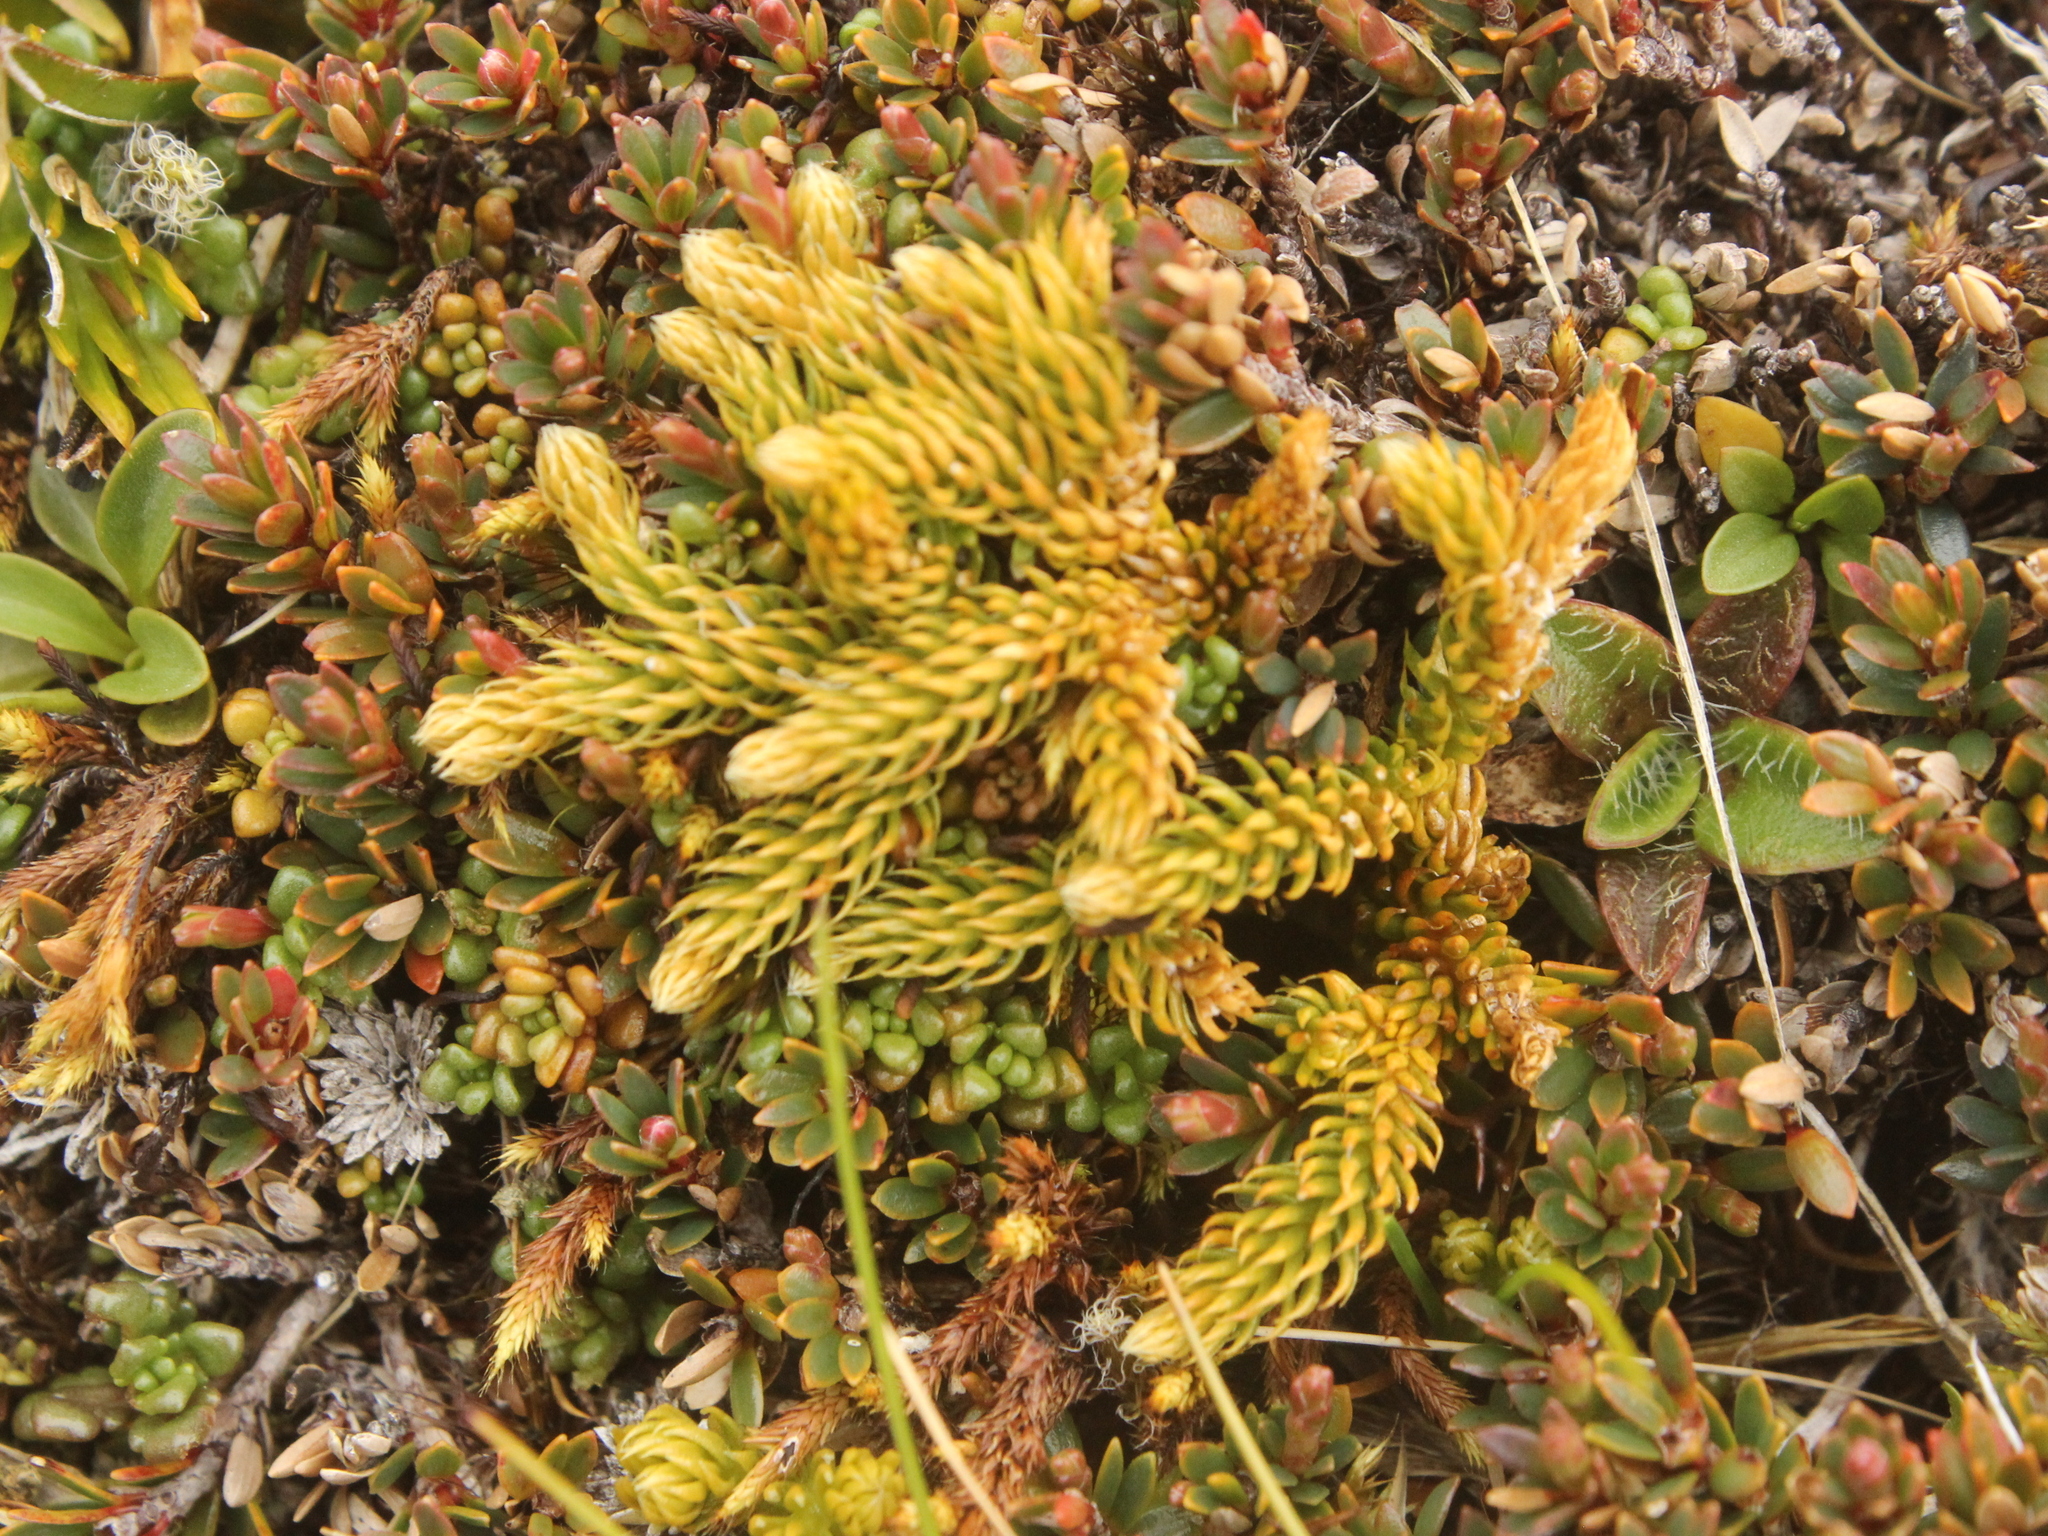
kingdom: Plantae
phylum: Tracheophyta
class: Lycopodiopsida
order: Lycopodiales
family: Lycopodiaceae
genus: Austrolycopodium
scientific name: Austrolycopodium fastigiatum
